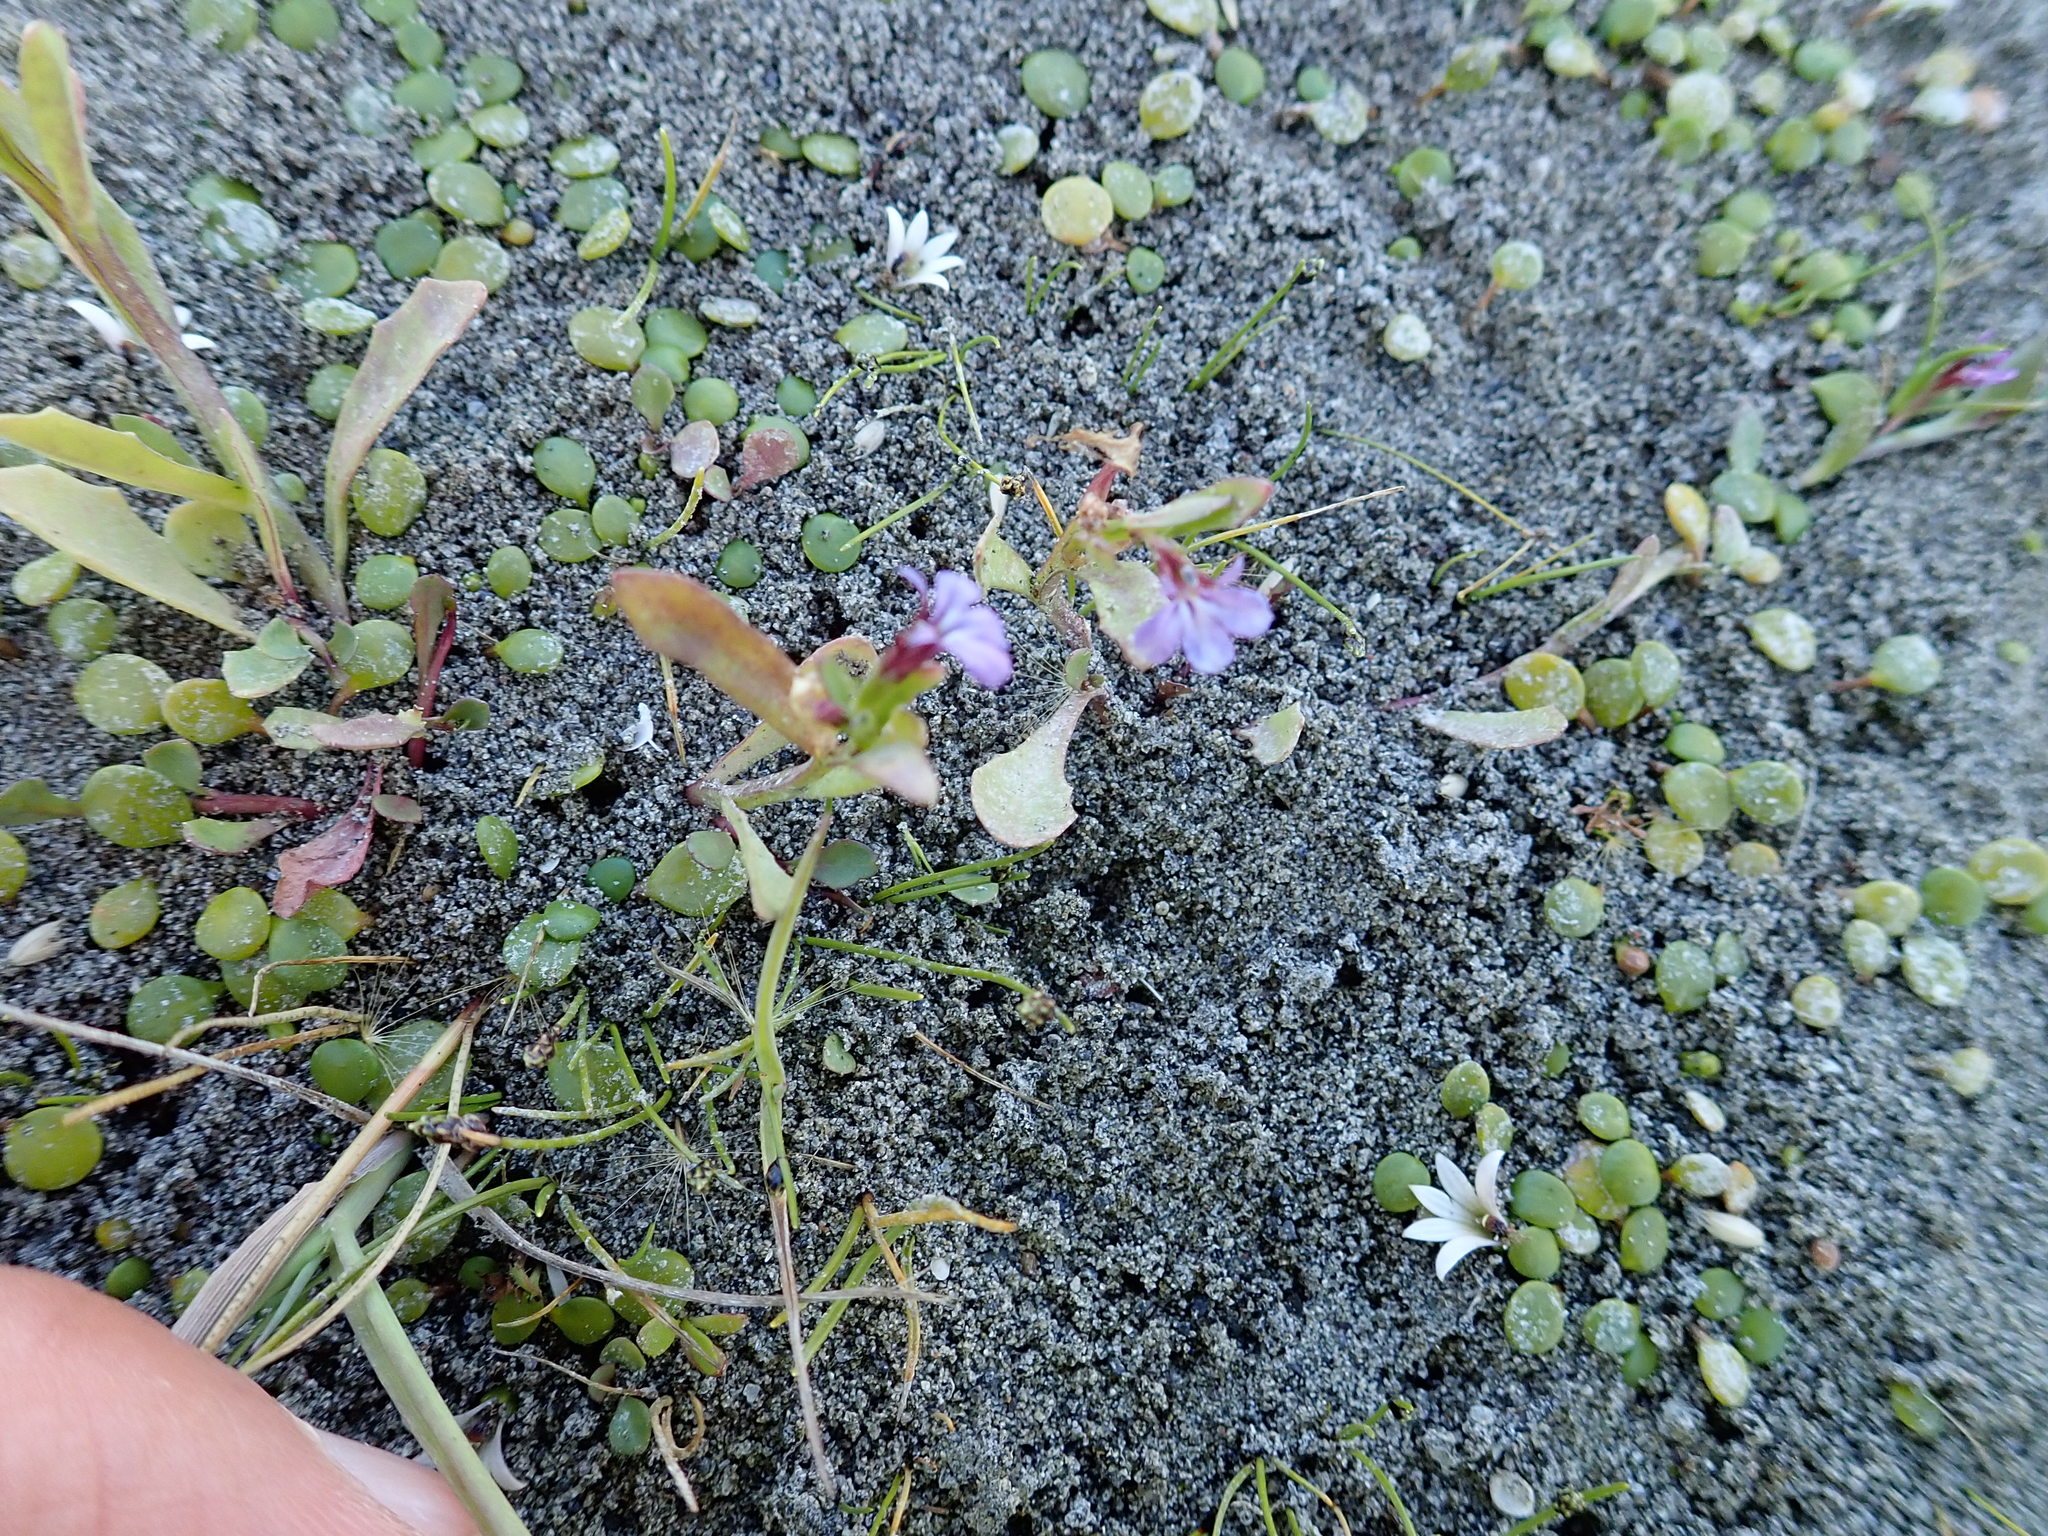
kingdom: Plantae
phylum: Tracheophyta
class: Magnoliopsida
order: Asterales
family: Campanulaceae
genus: Lobelia
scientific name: Lobelia anceps
